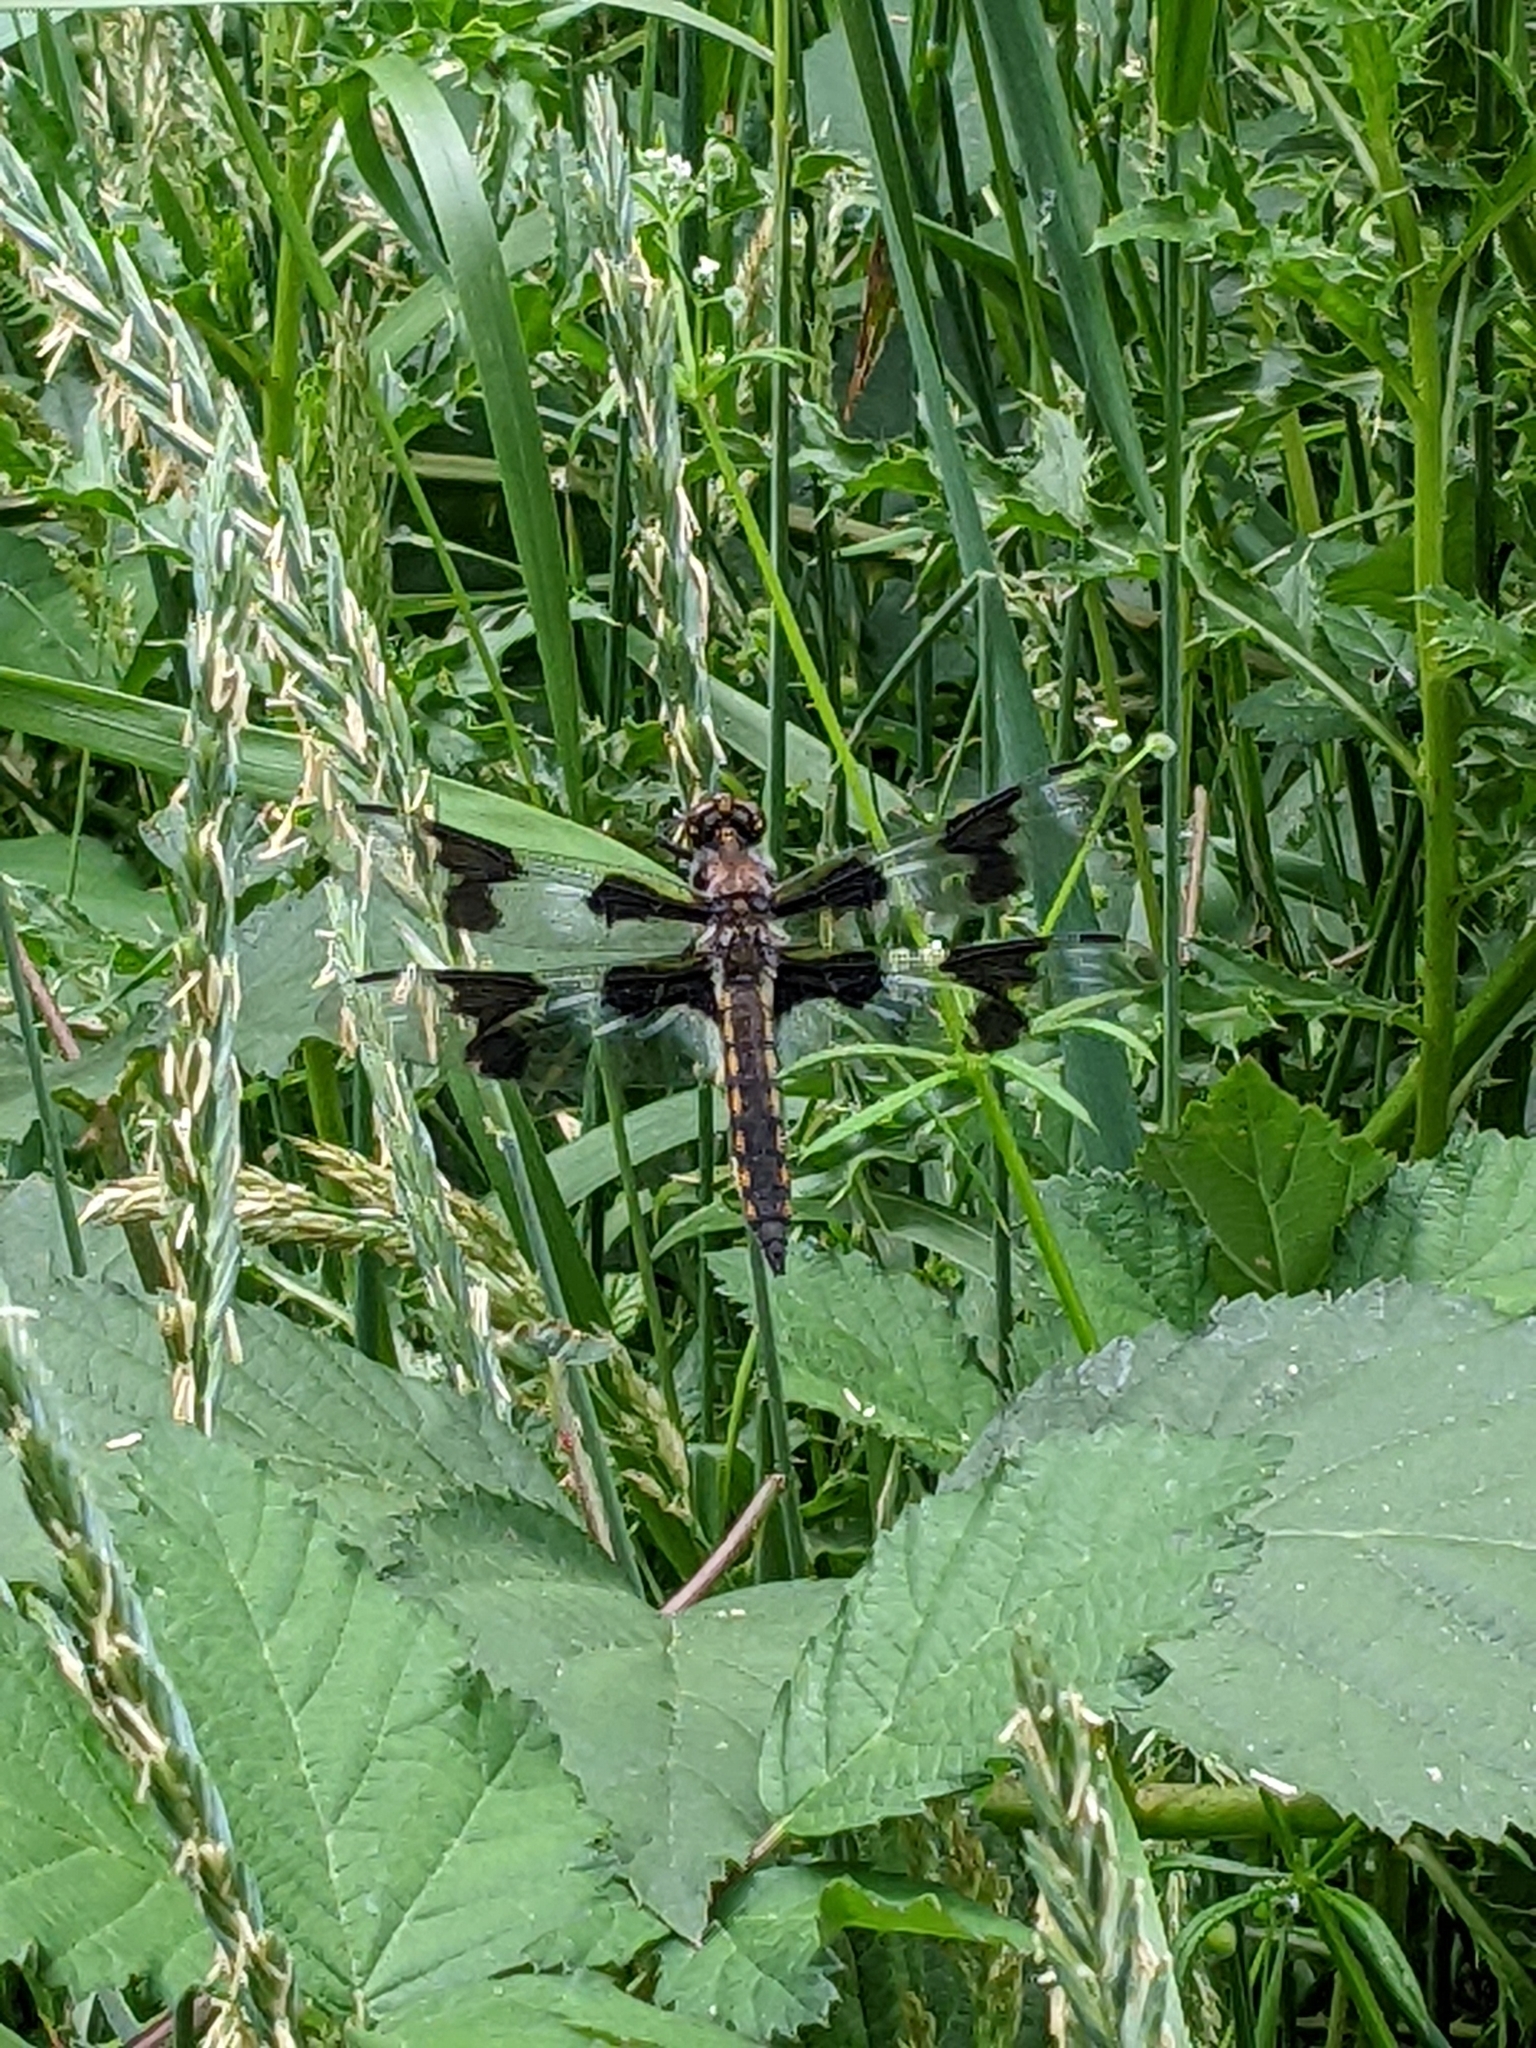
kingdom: Animalia
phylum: Arthropoda
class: Insecta
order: Odonata
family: Libellulidae
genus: Libellula
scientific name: Libellula forensis
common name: Eight-spotted skimmer
